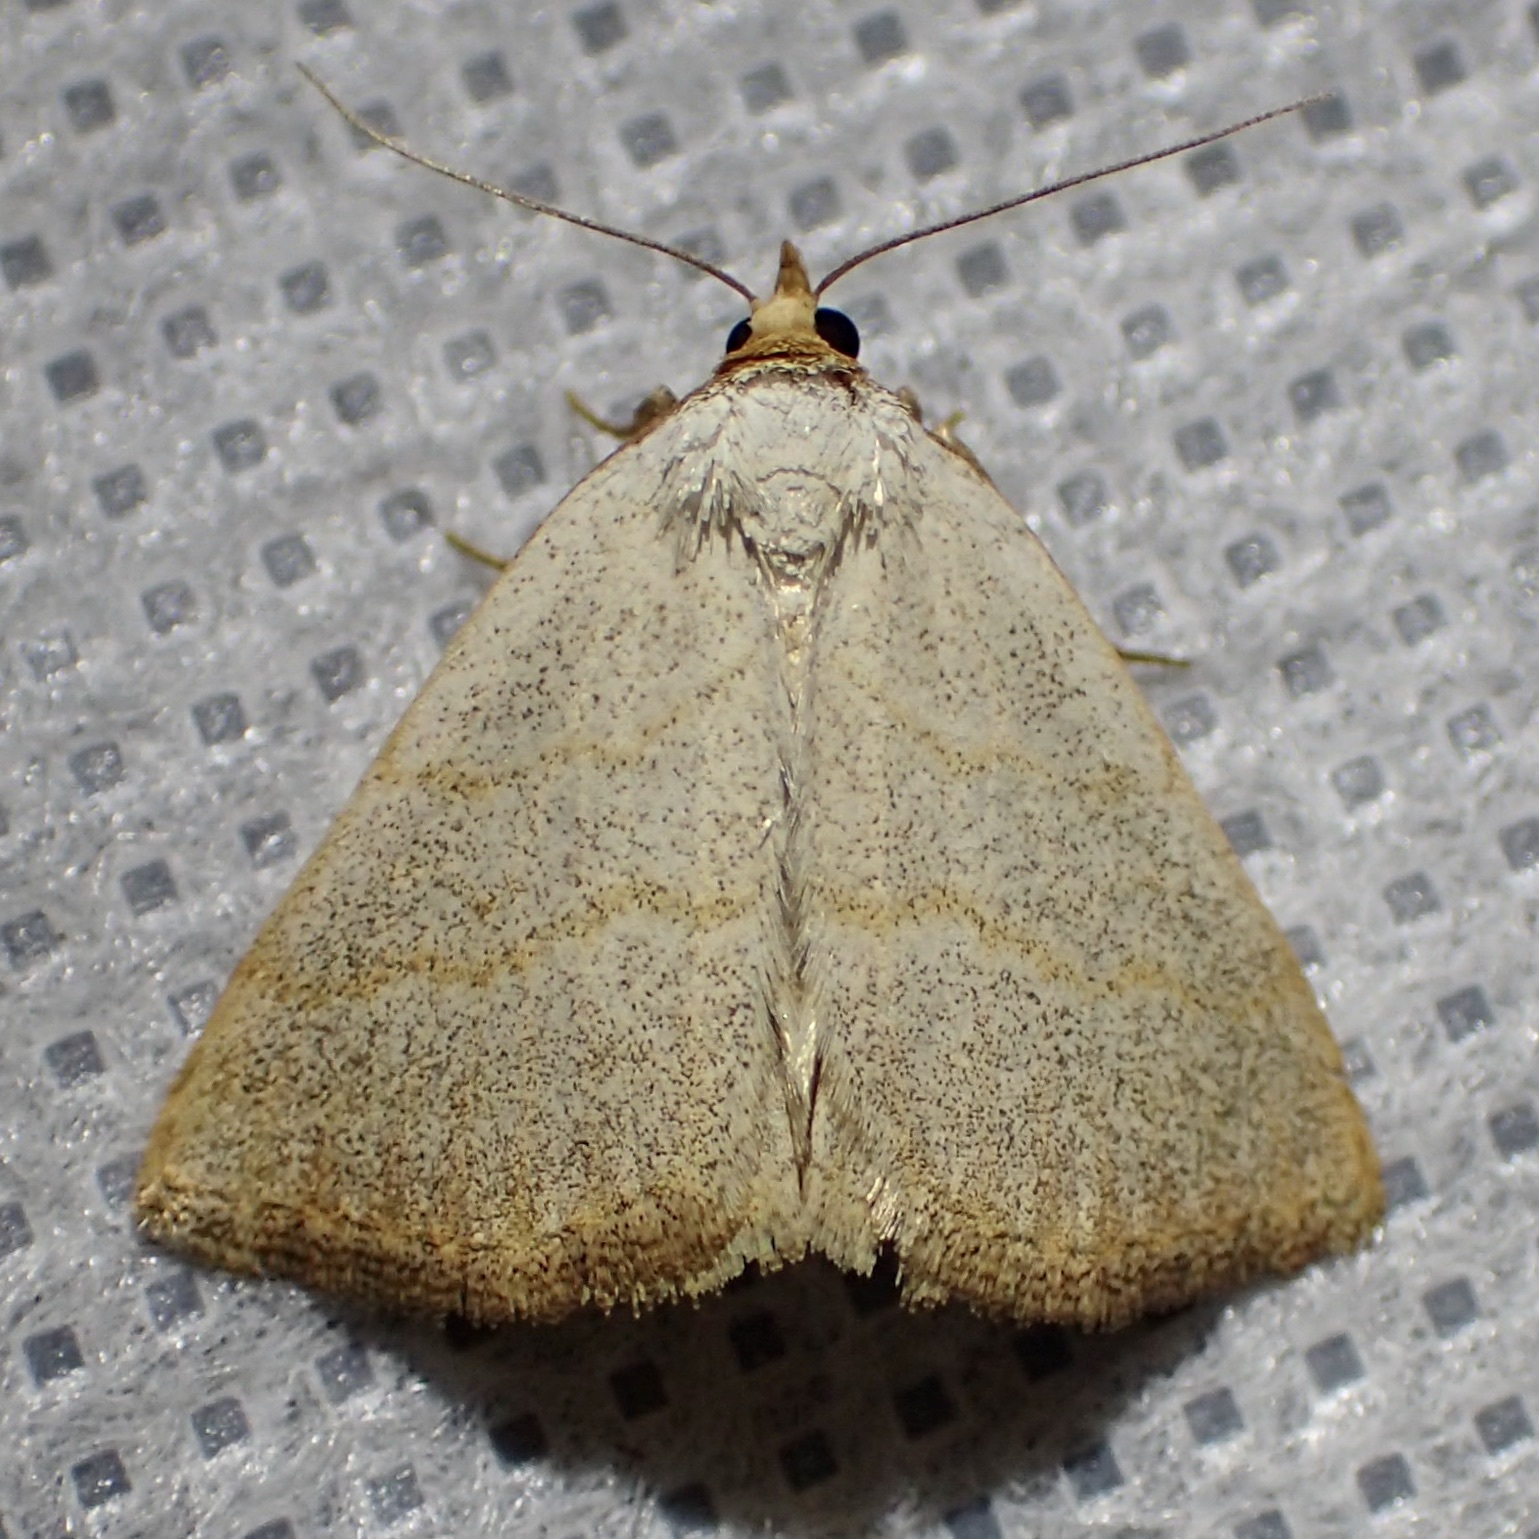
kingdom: Animalia
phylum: Arthropoda
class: Insecta
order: Lepidoptera
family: Erebidae
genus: Oxycilla
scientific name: Oxycilla tripla
